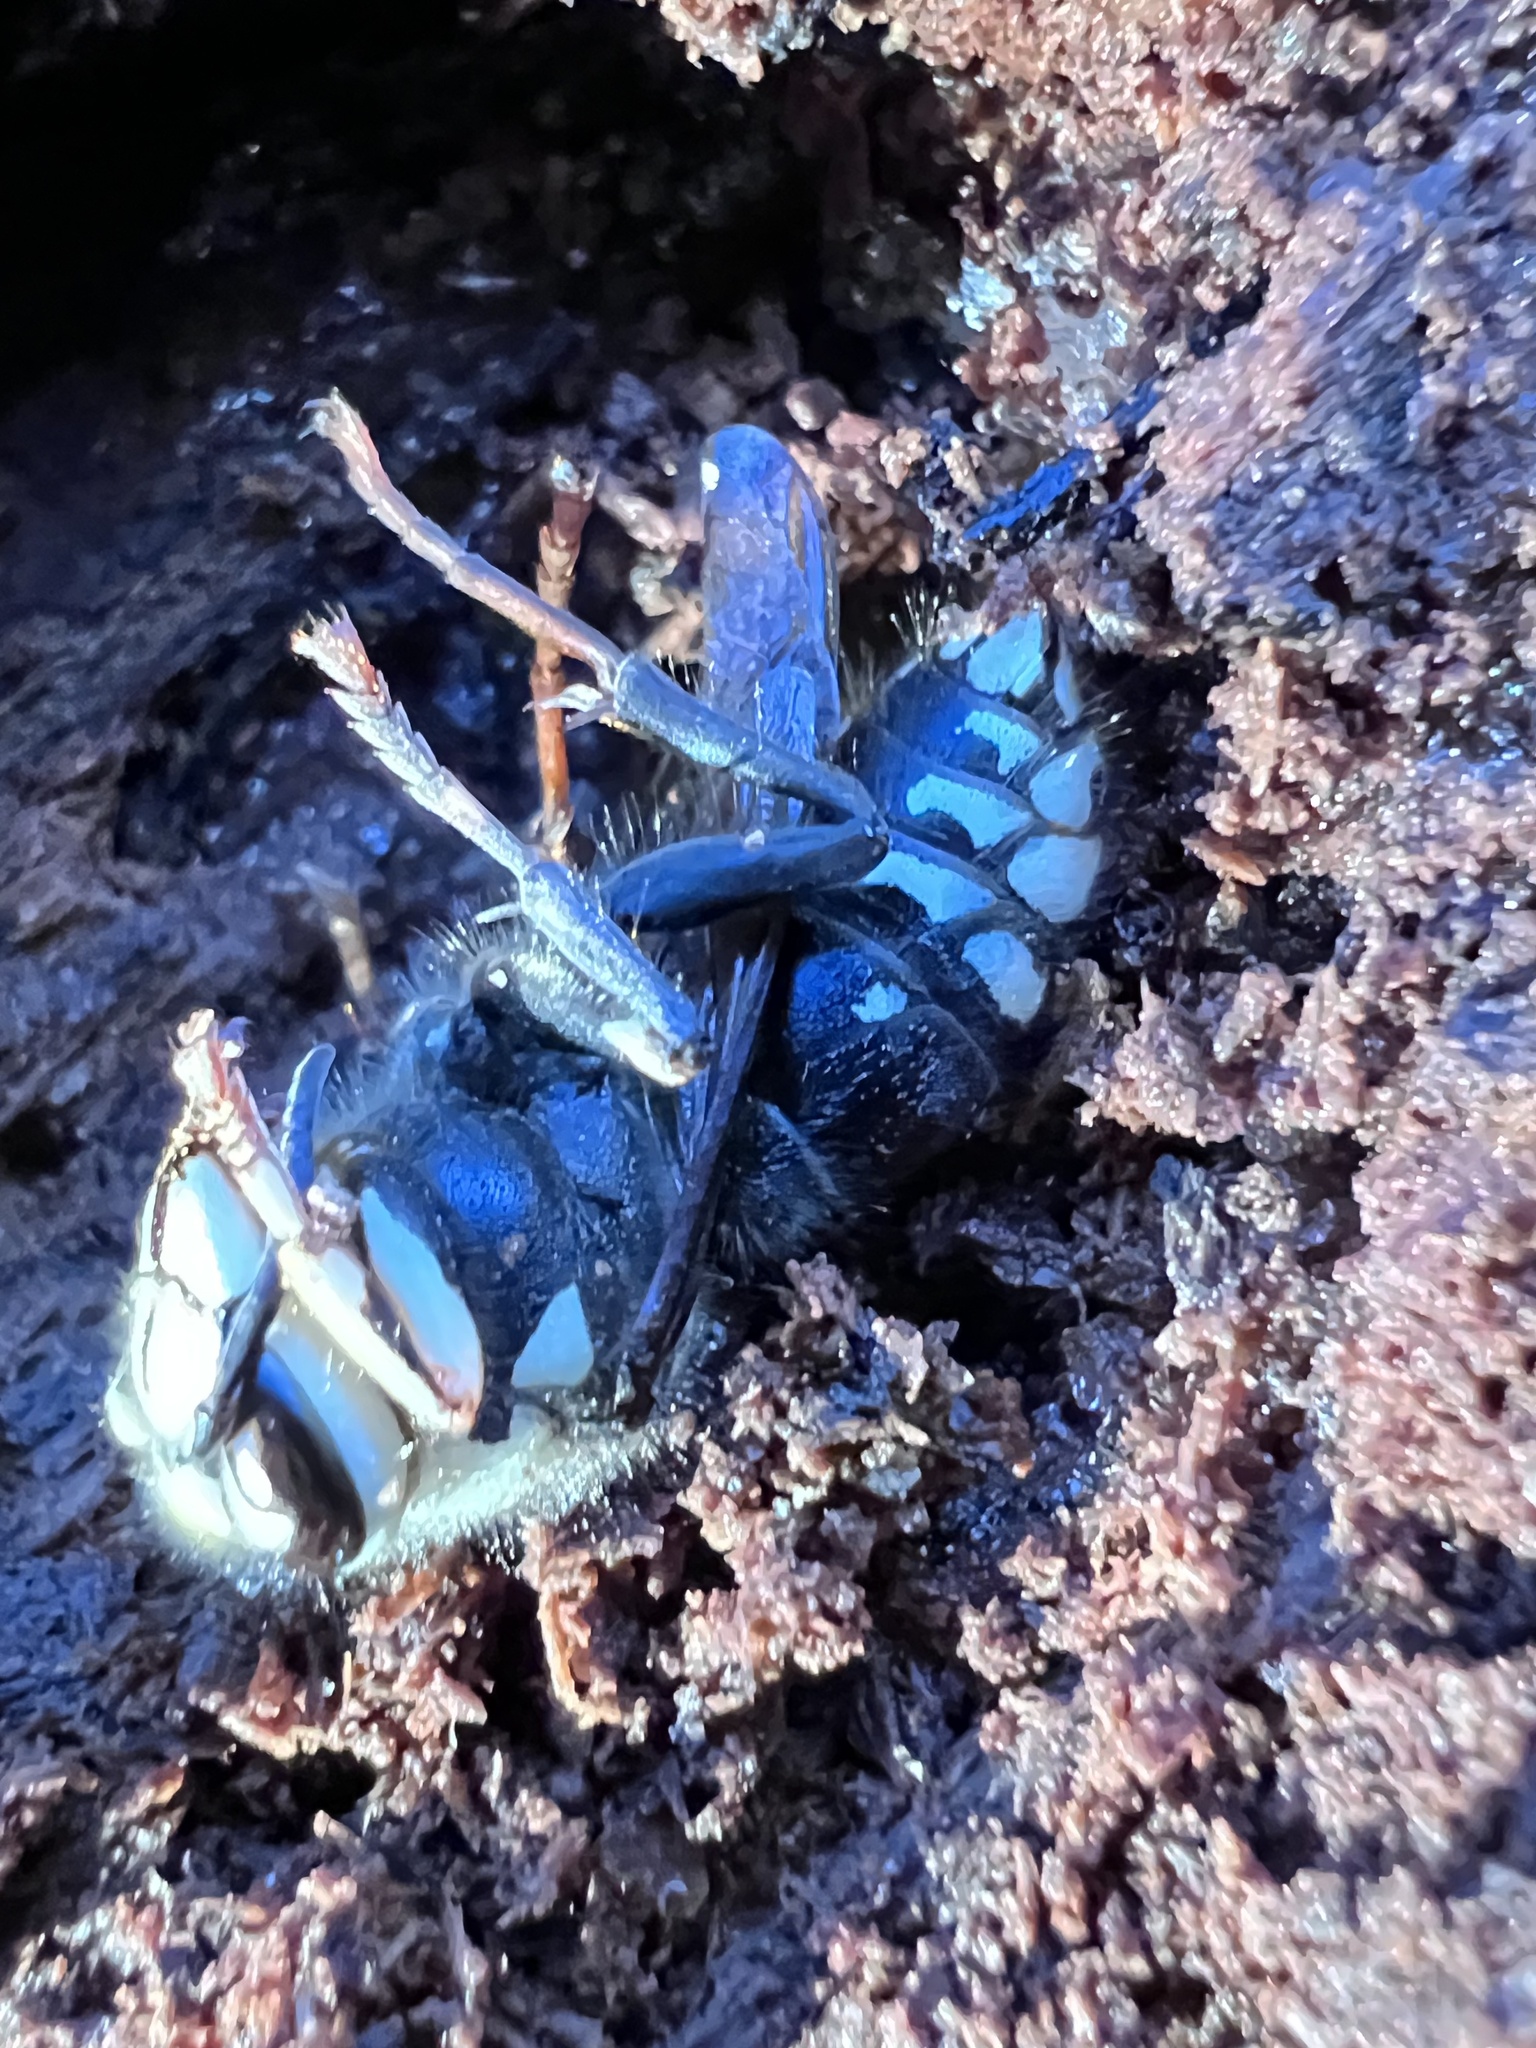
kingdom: Animalia
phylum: Arthropoda
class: Insecta
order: Hymenoptera
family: Vespidae
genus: Dolichovespula
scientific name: Dolichovespula maculata
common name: Bald-faced hornet
